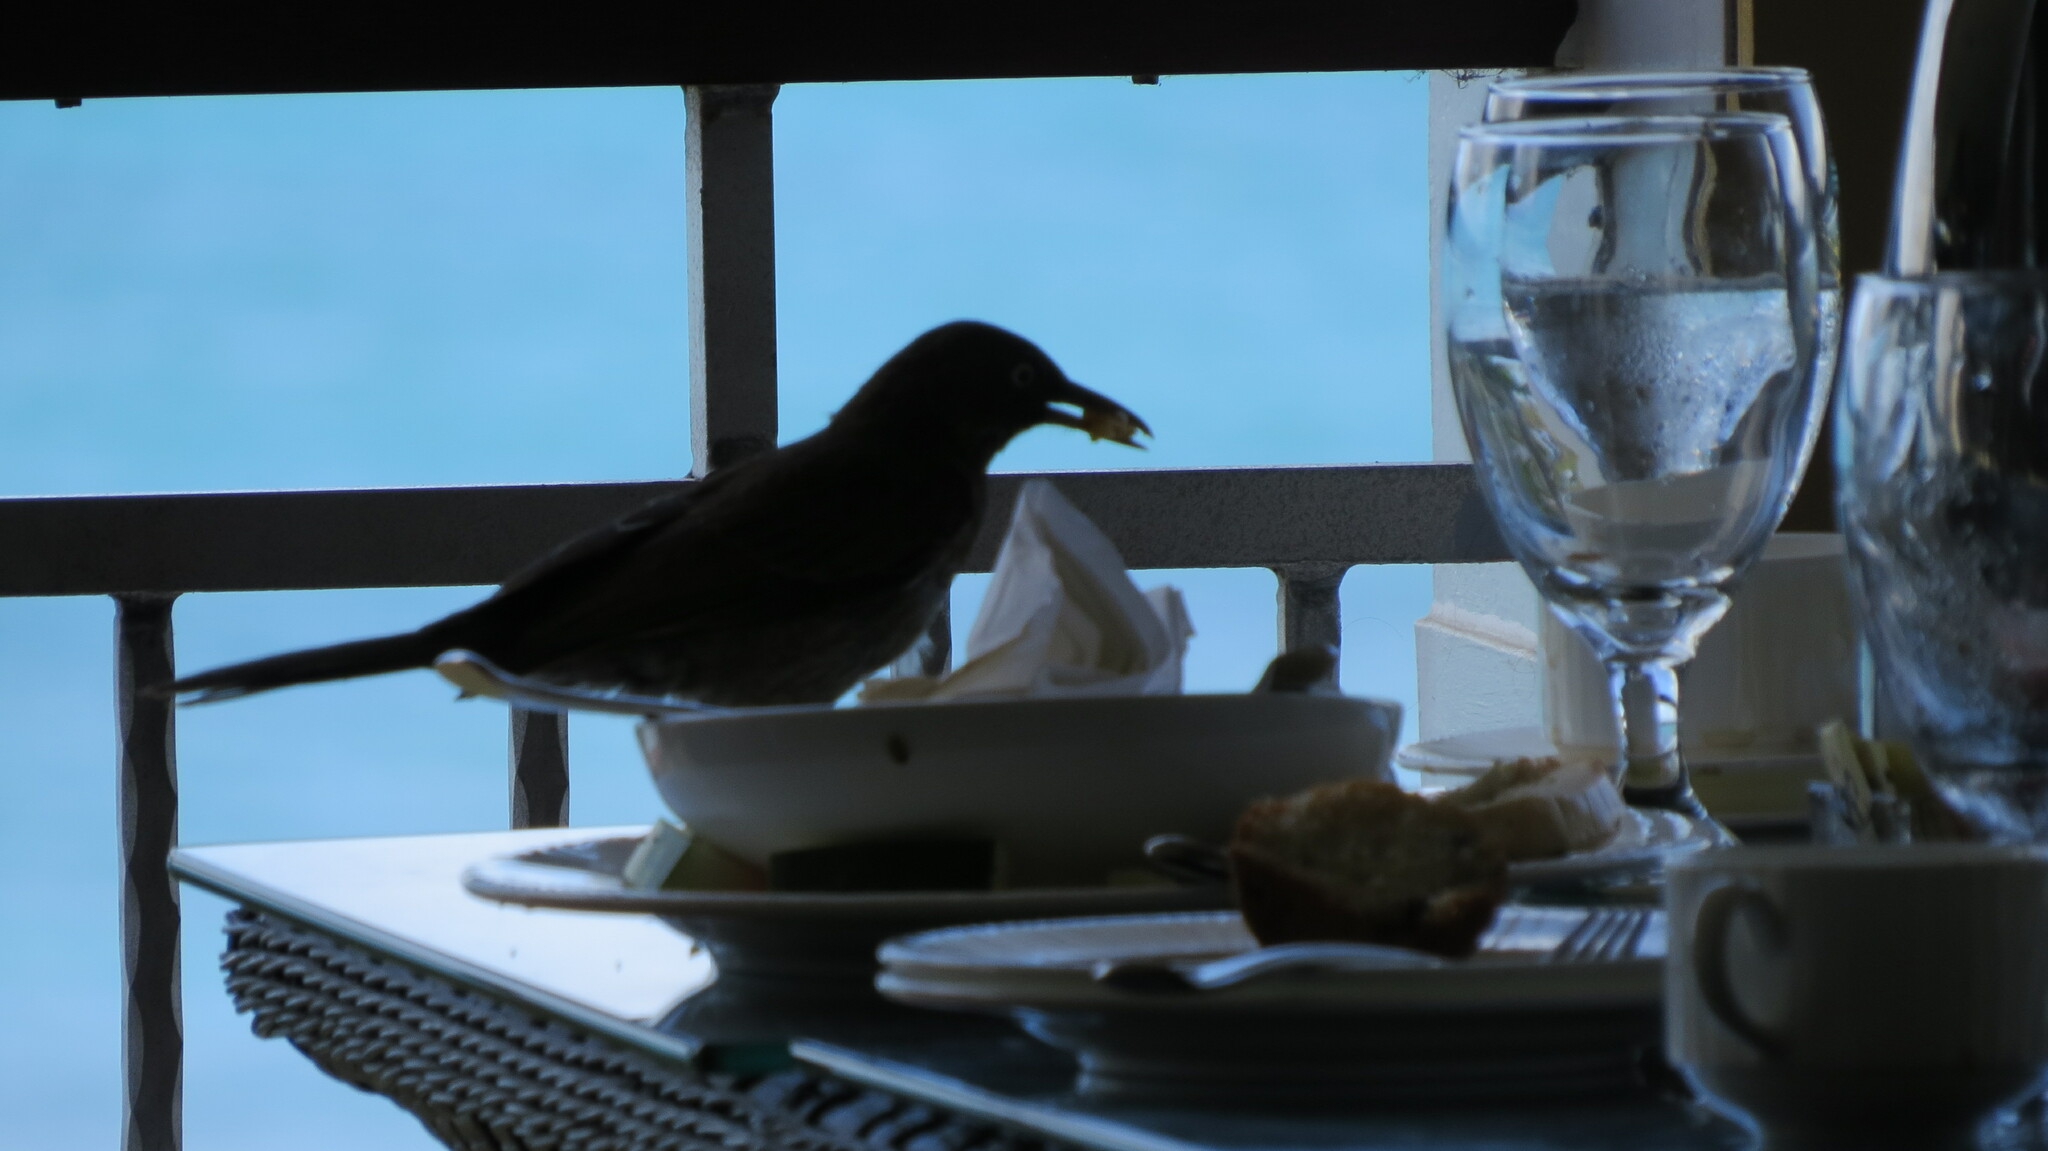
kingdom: Animalia
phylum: Chordata
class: Aves
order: Passeriformes
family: Mimidae
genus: Margarops
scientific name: Margarops fuscatus
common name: Pearly-eyed thrasher
